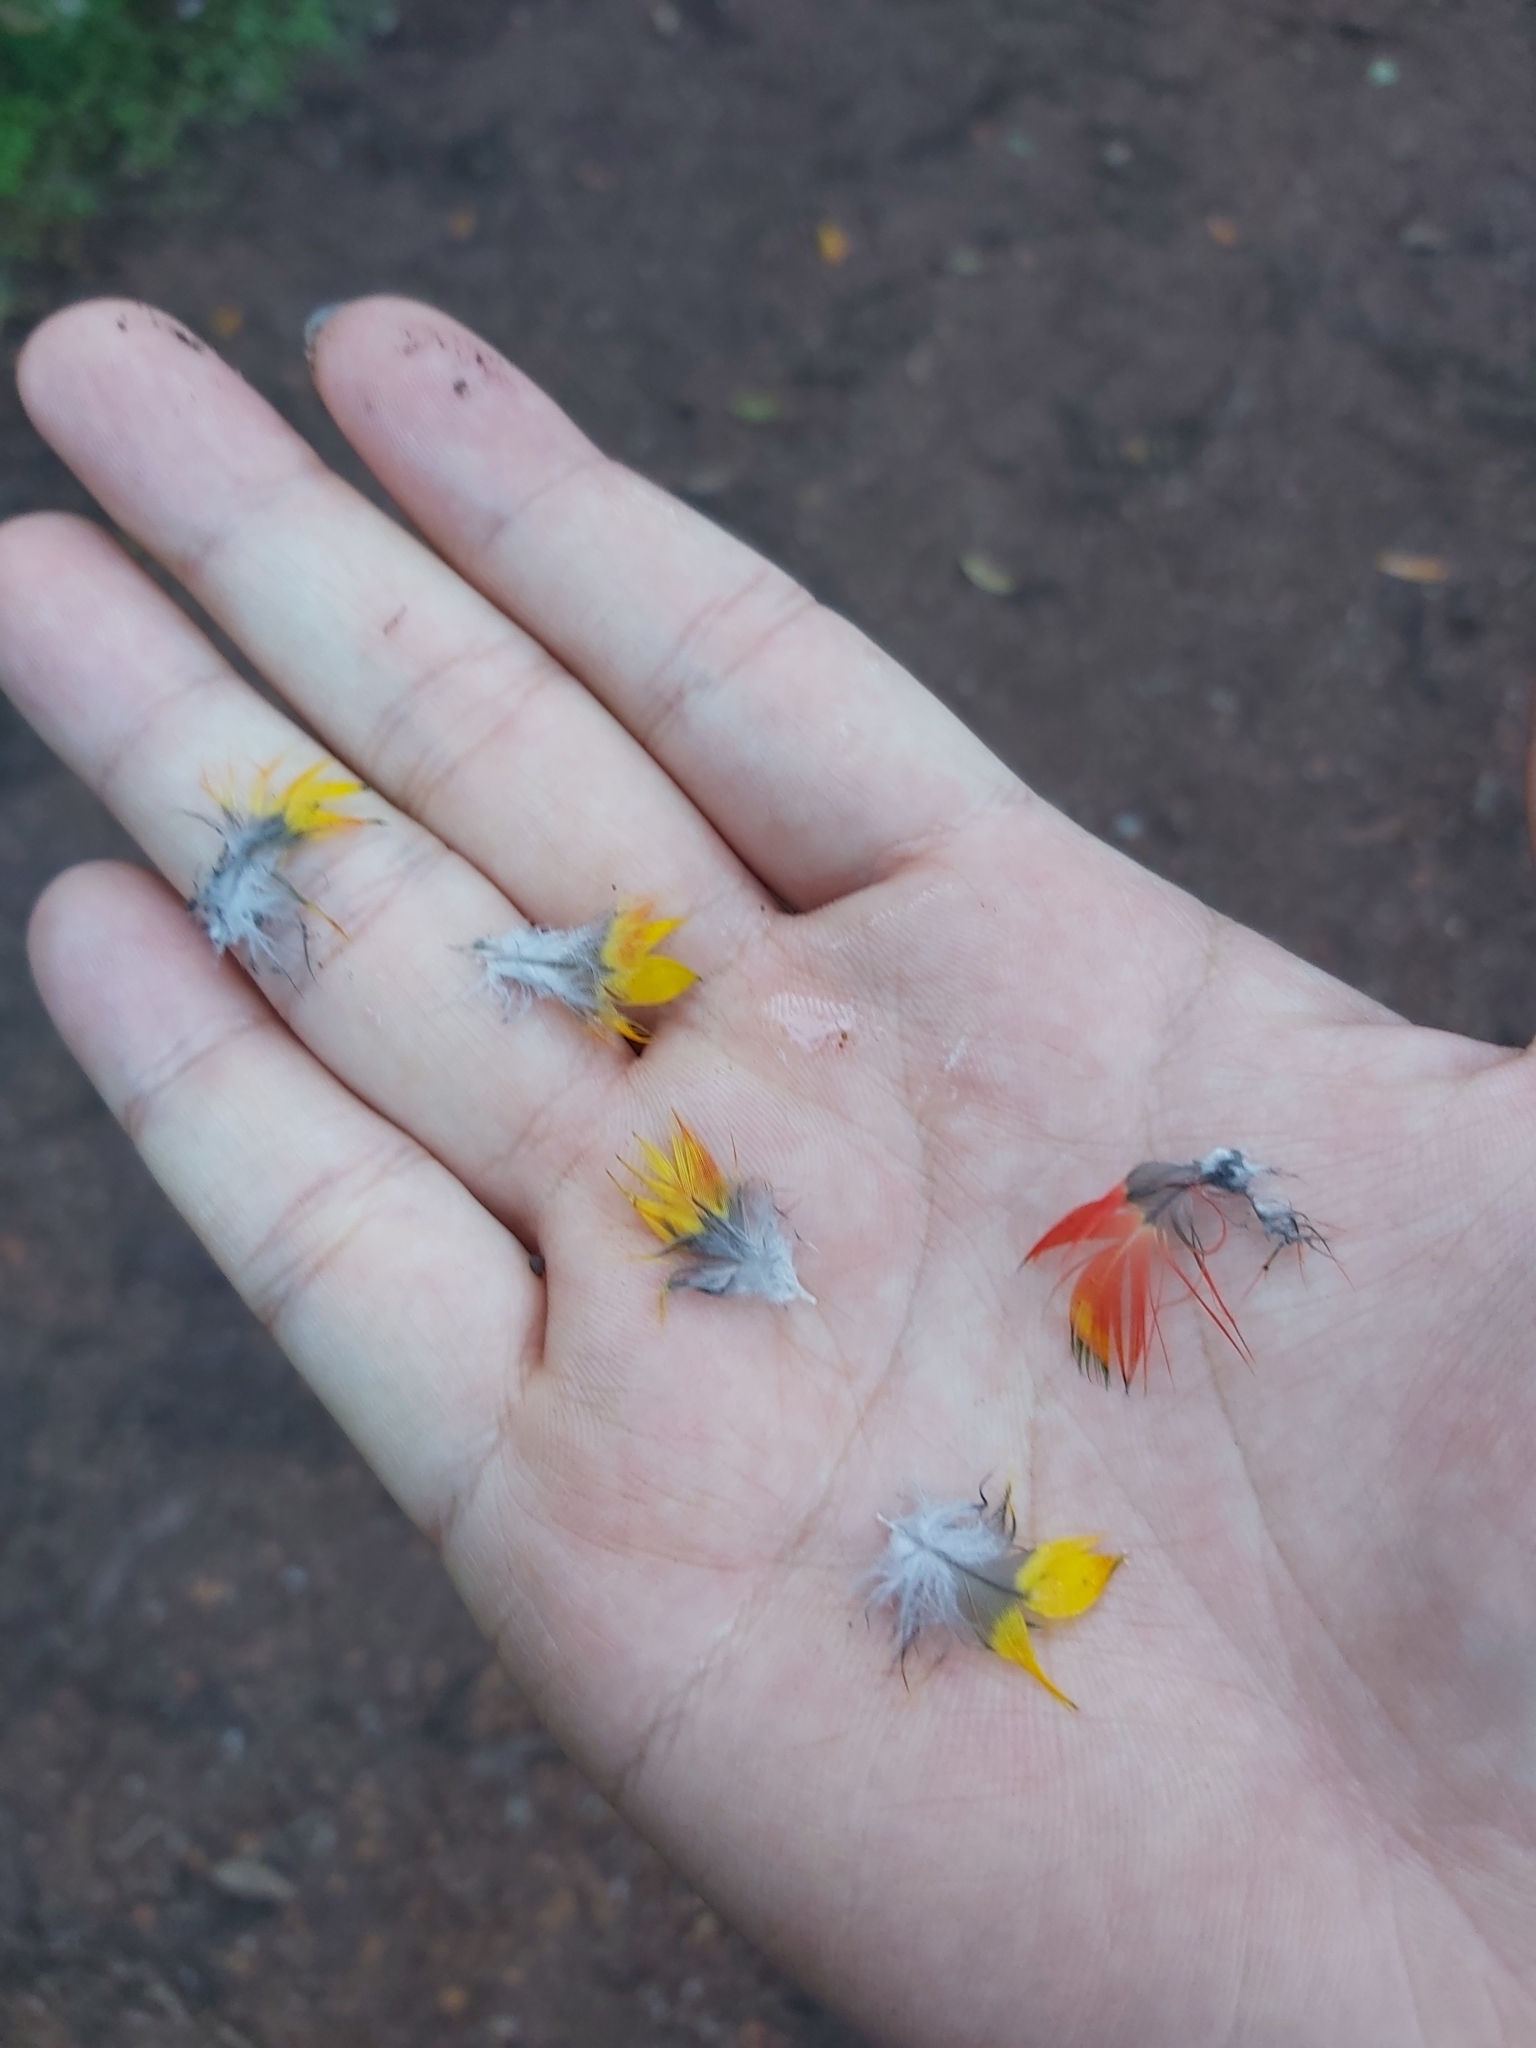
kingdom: Animalia
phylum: Chordata
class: Aves
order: Psittaciformes
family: Psittacidae
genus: Trichoglossus
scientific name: Trichoglossus haematodus
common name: Coconut lorikeet
